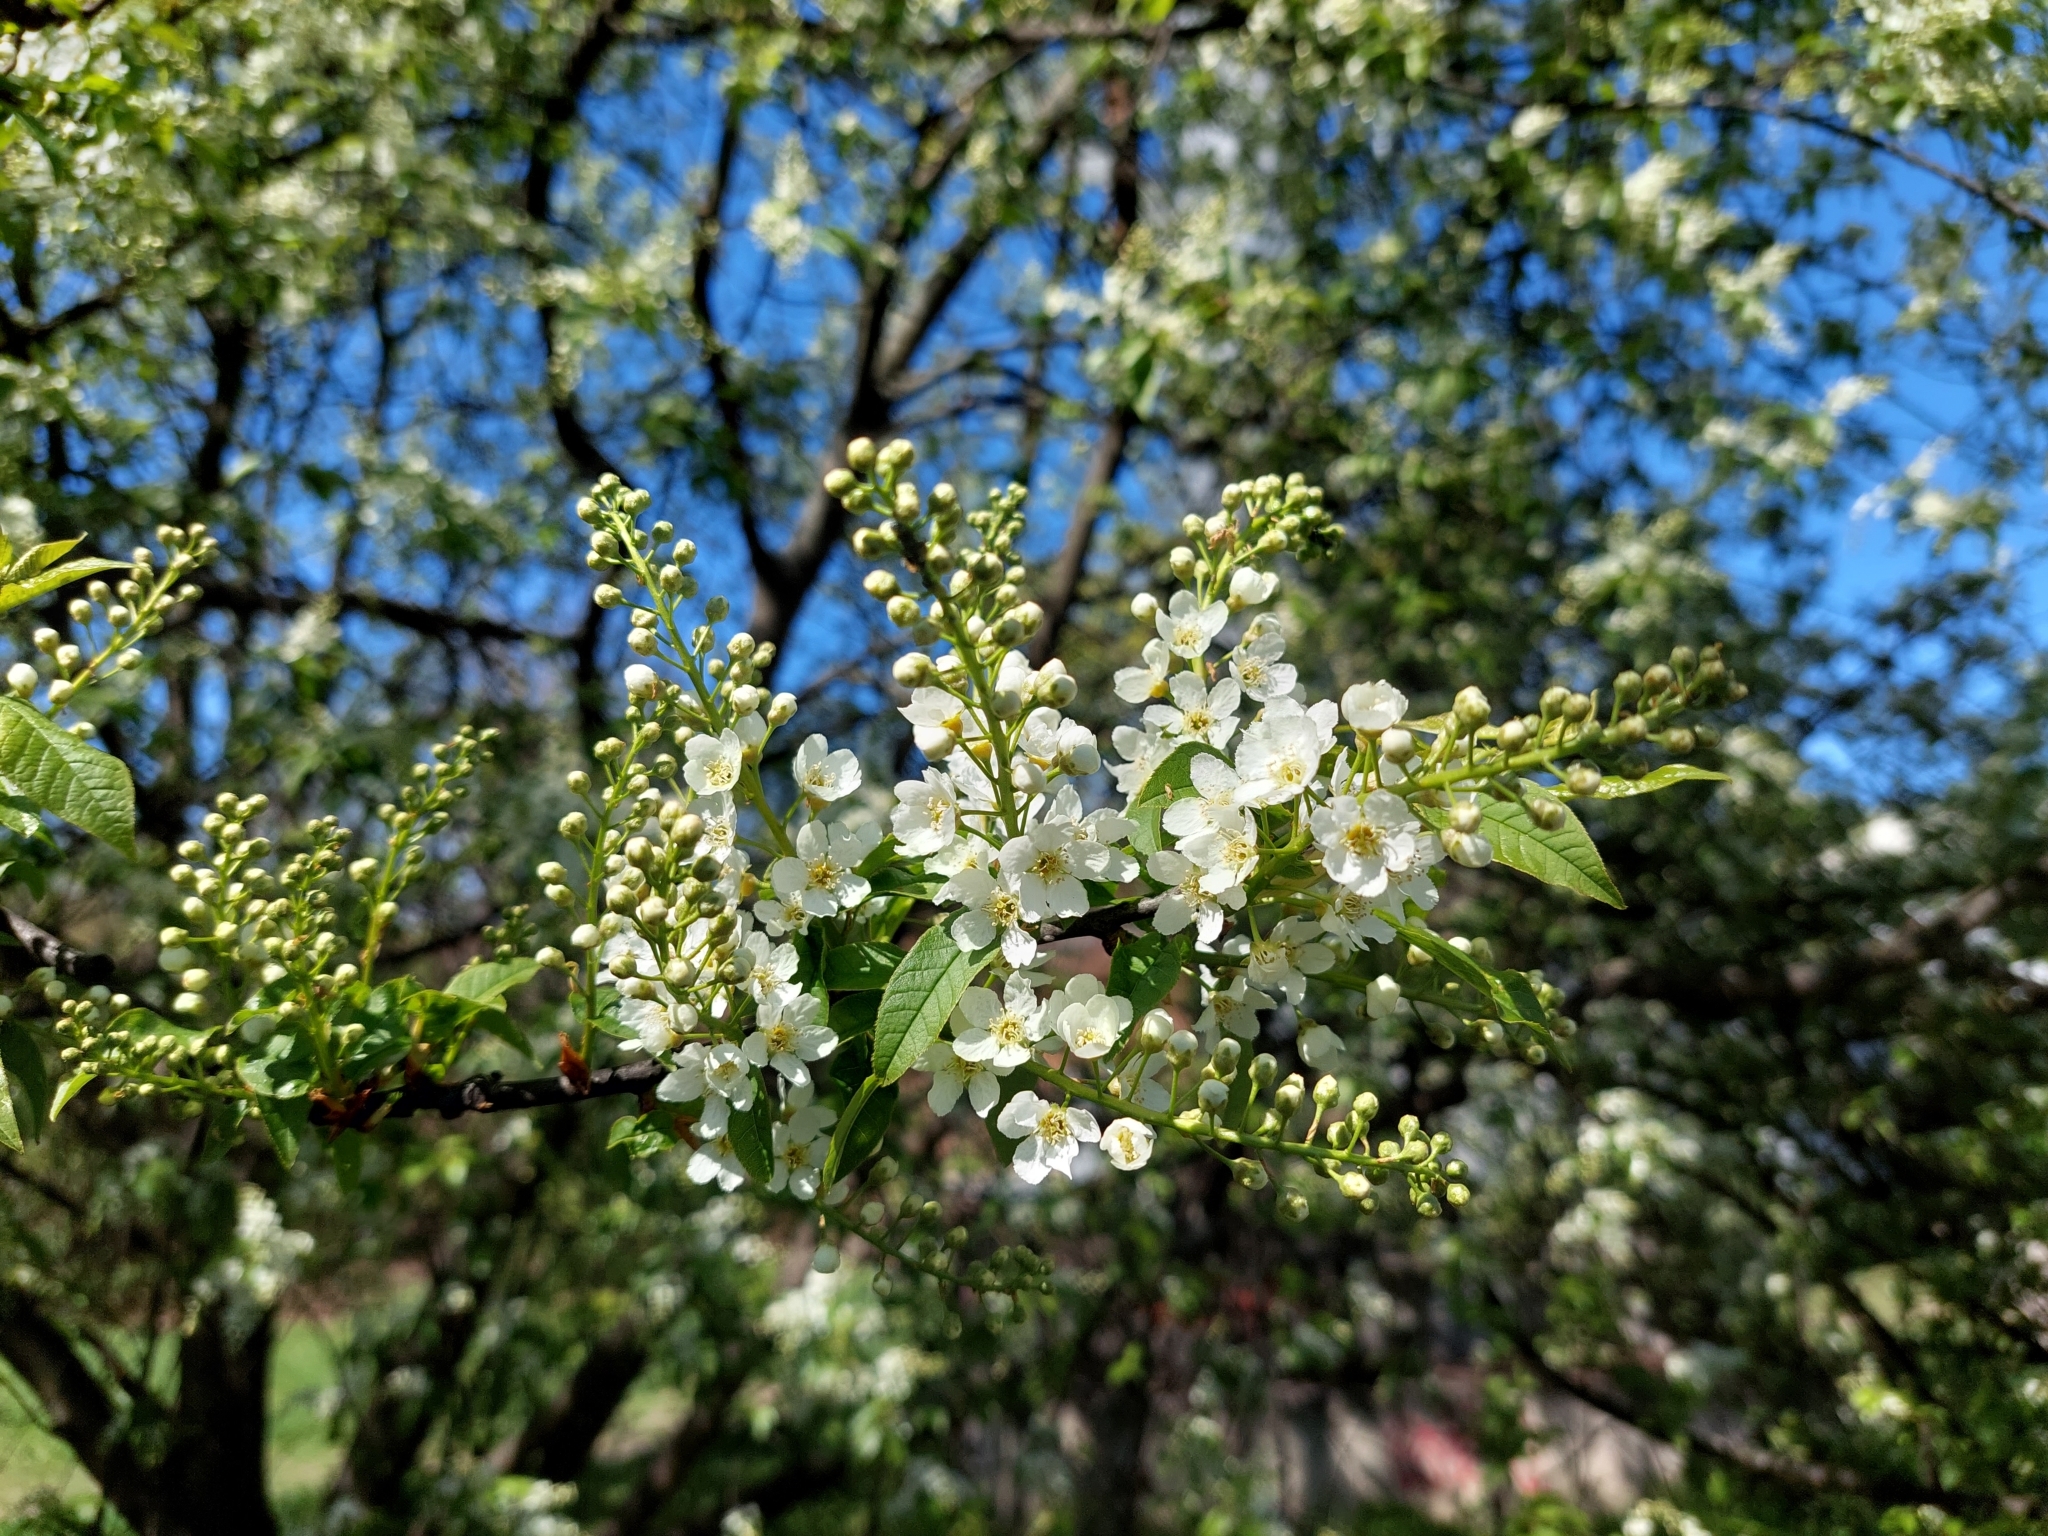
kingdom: Plantae
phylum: Tracheophyta
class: Magnoliopsida
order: Rosales
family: Rosaceae
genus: Prunus
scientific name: Prunus padus
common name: Bird cherry
